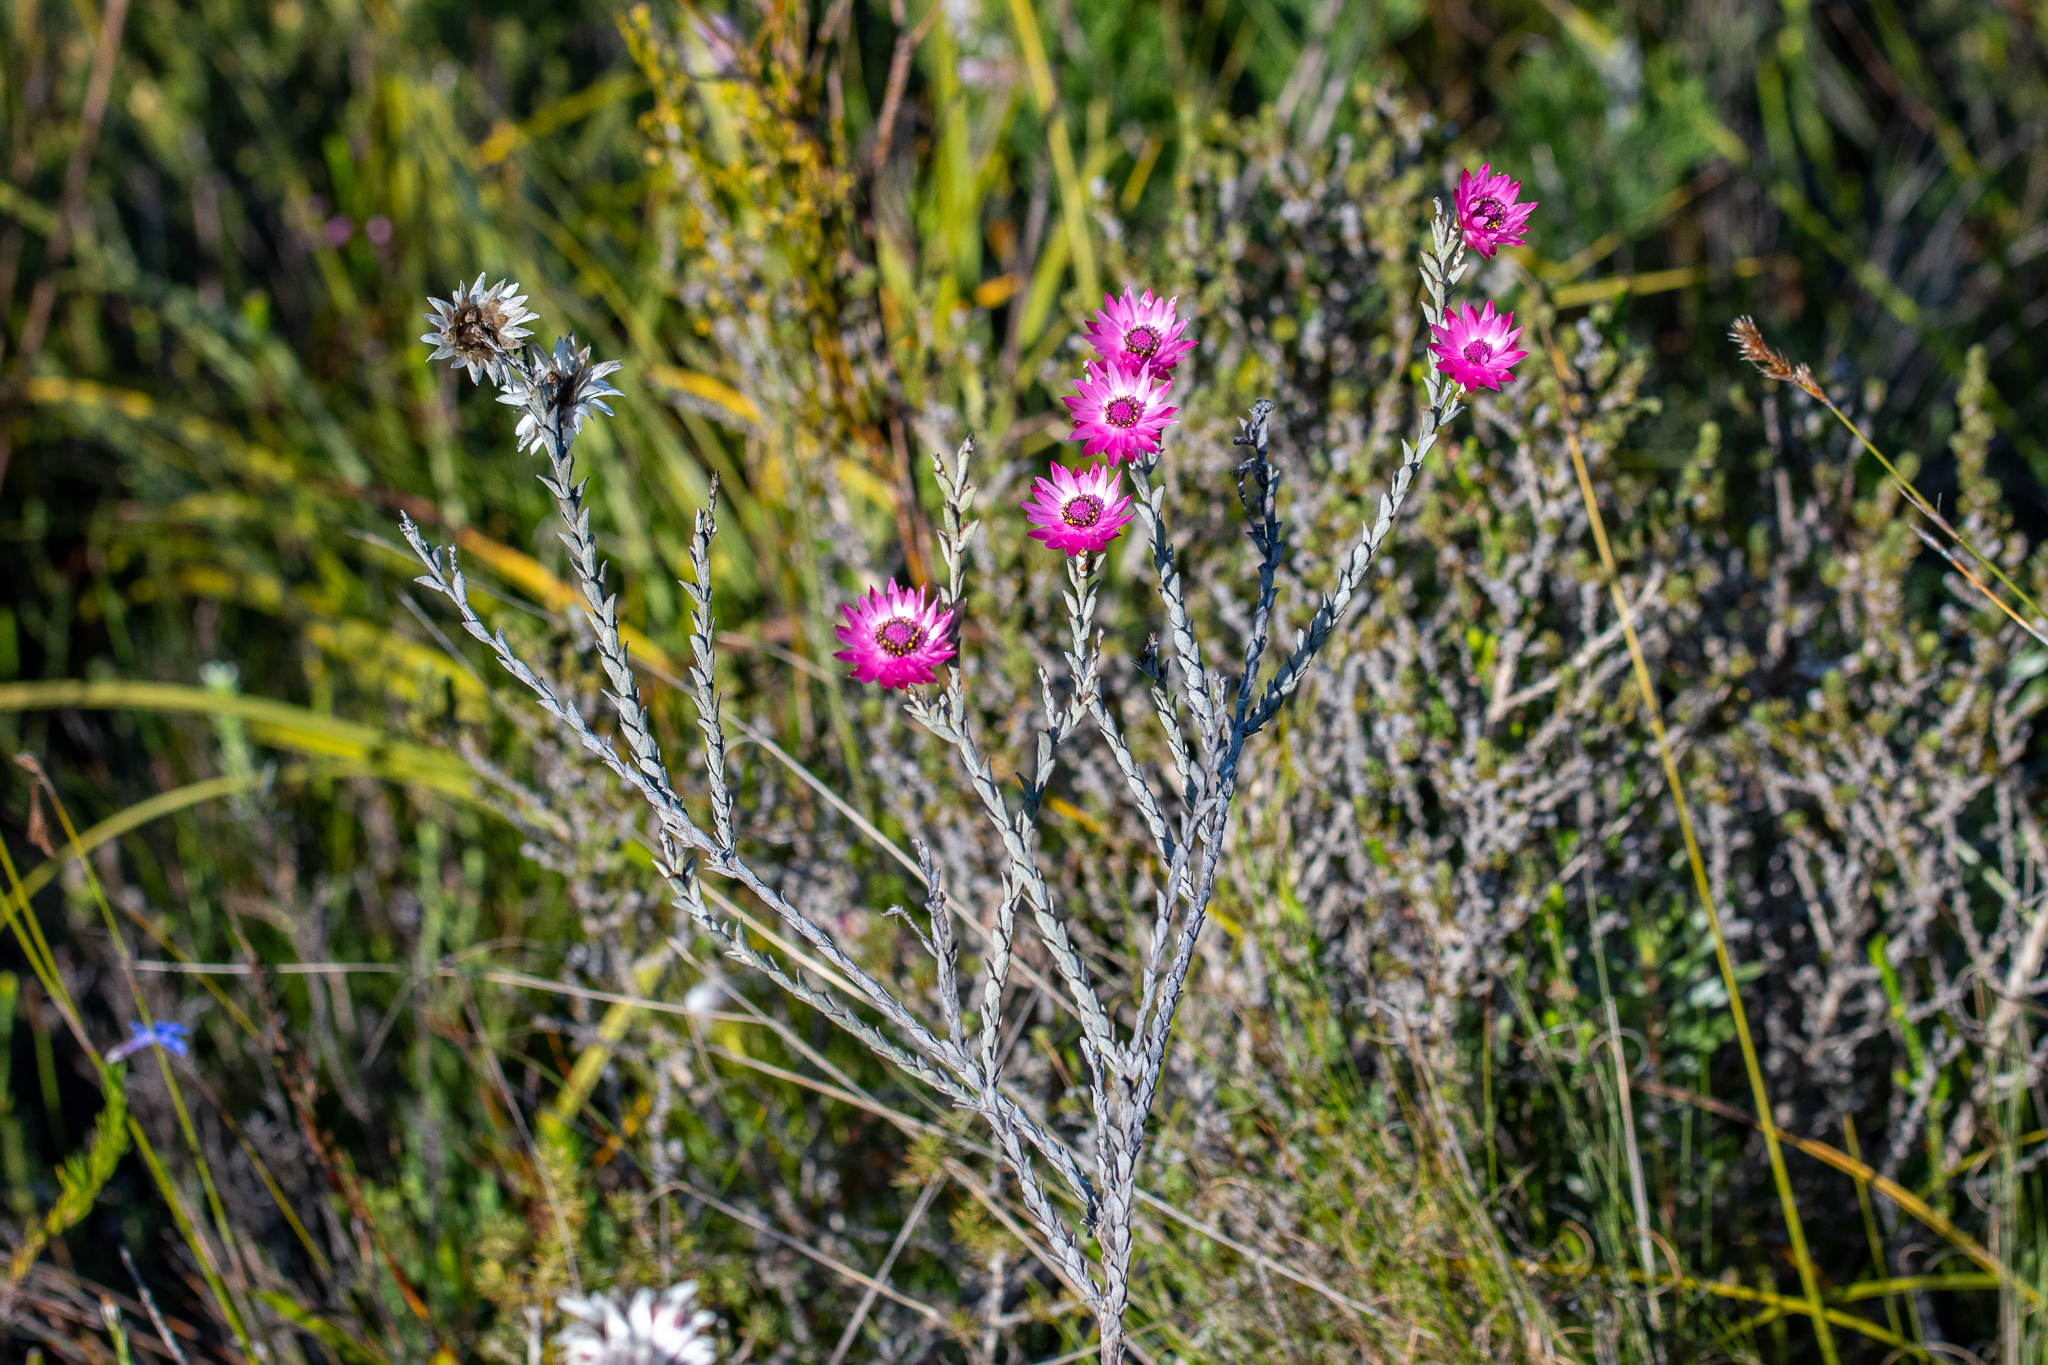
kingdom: Plantae
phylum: Tracheophyta
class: Magnoliopsida
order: Asterales
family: Asteraceae
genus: Syncarpha
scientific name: Syncarpha canescens
